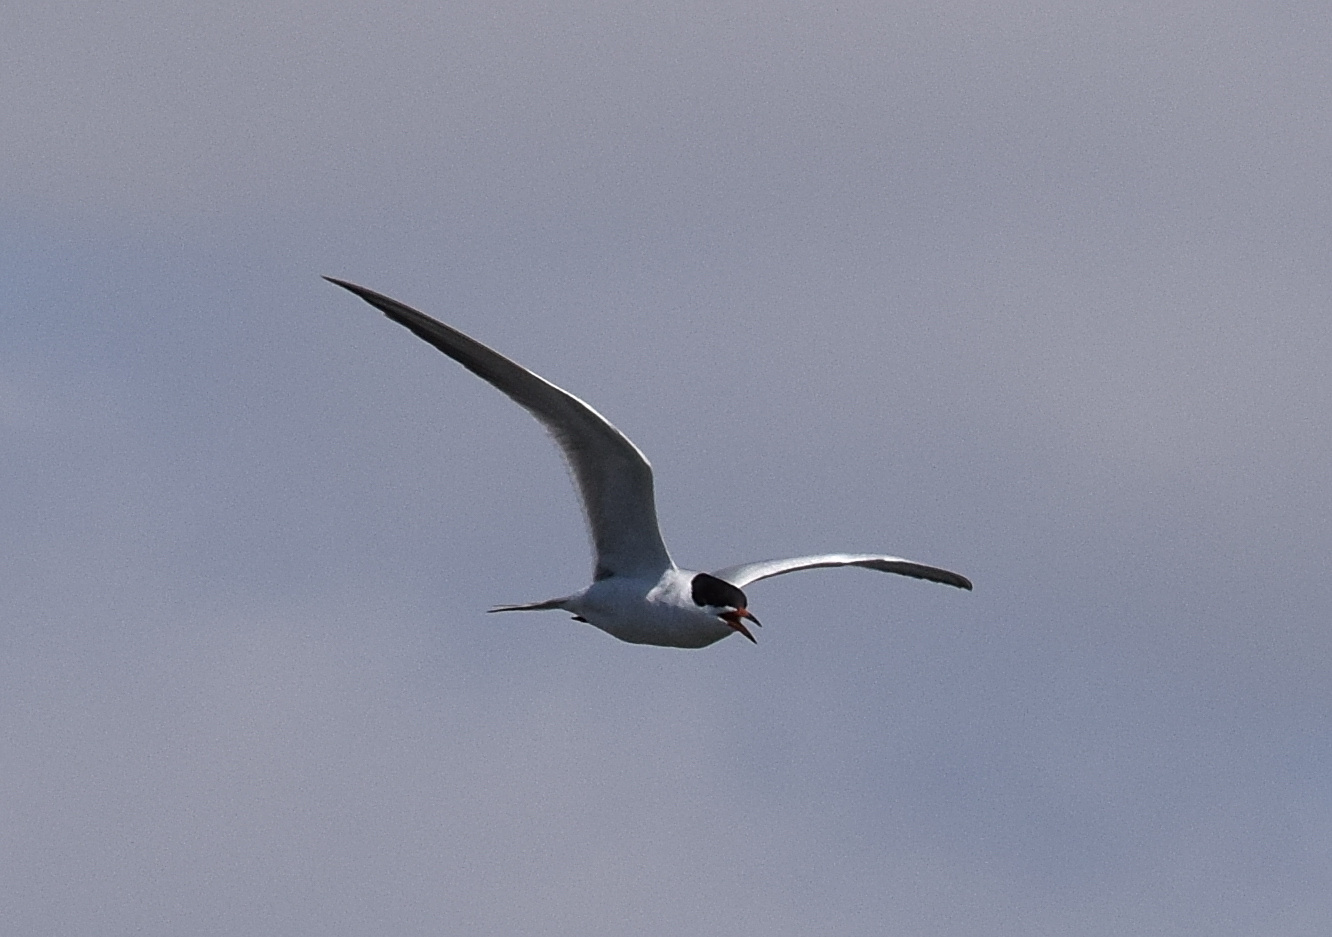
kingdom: Animalia
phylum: Chordata
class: Aves
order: Charadriiformes
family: Laridae
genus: Sterna
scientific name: Sterna forsteri
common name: Forster's tern
